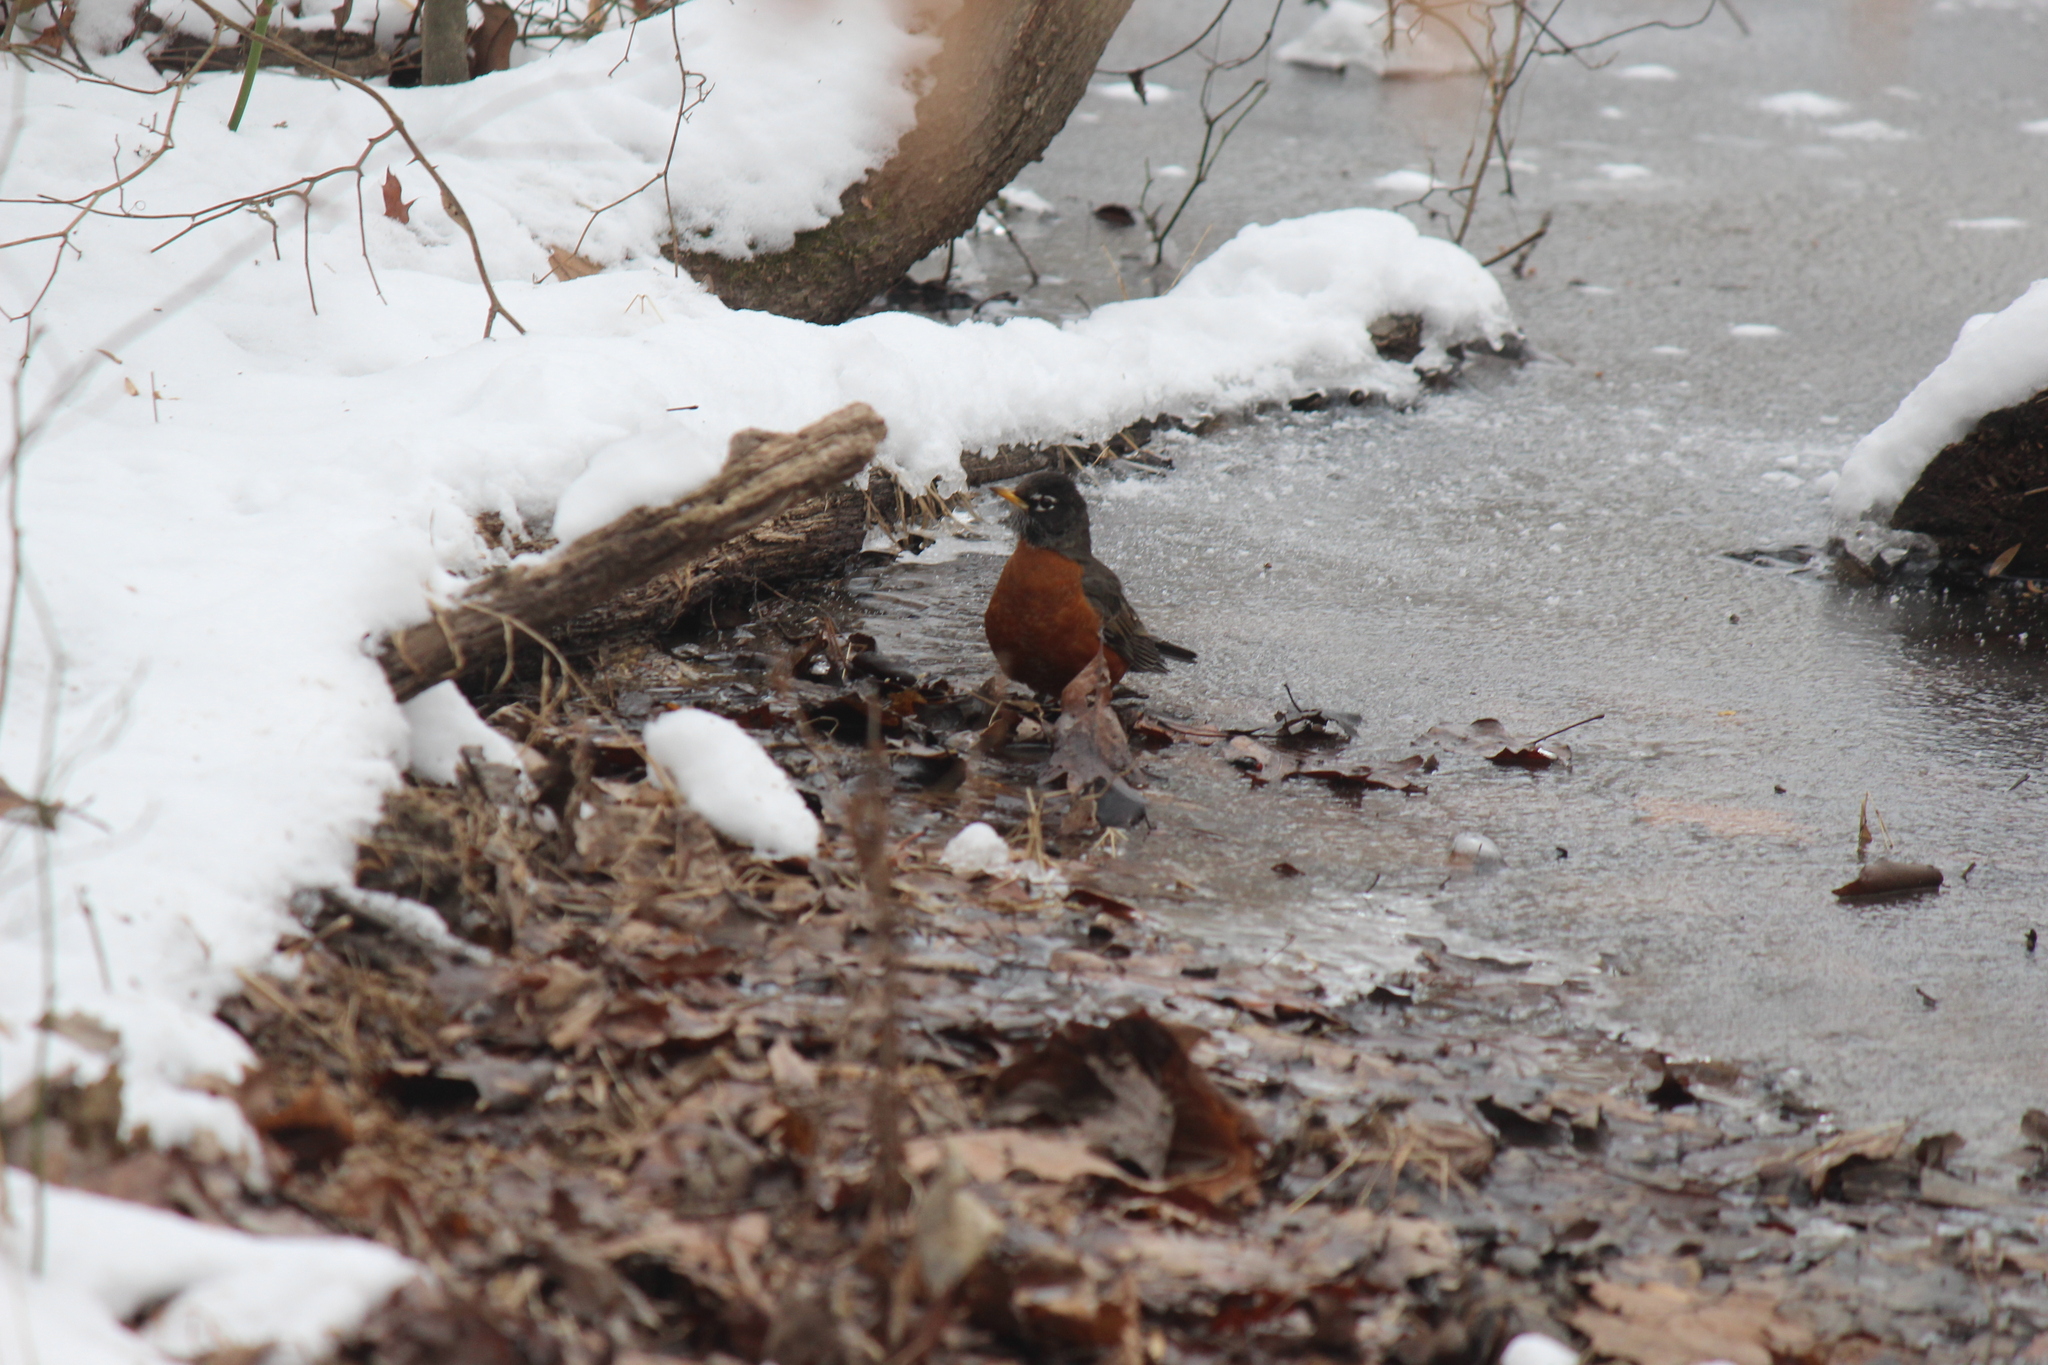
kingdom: Animalia
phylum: Chordata
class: Aves
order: Passeriformes
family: Turdidae
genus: Turdus
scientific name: Turdus migratorius
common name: American robin
